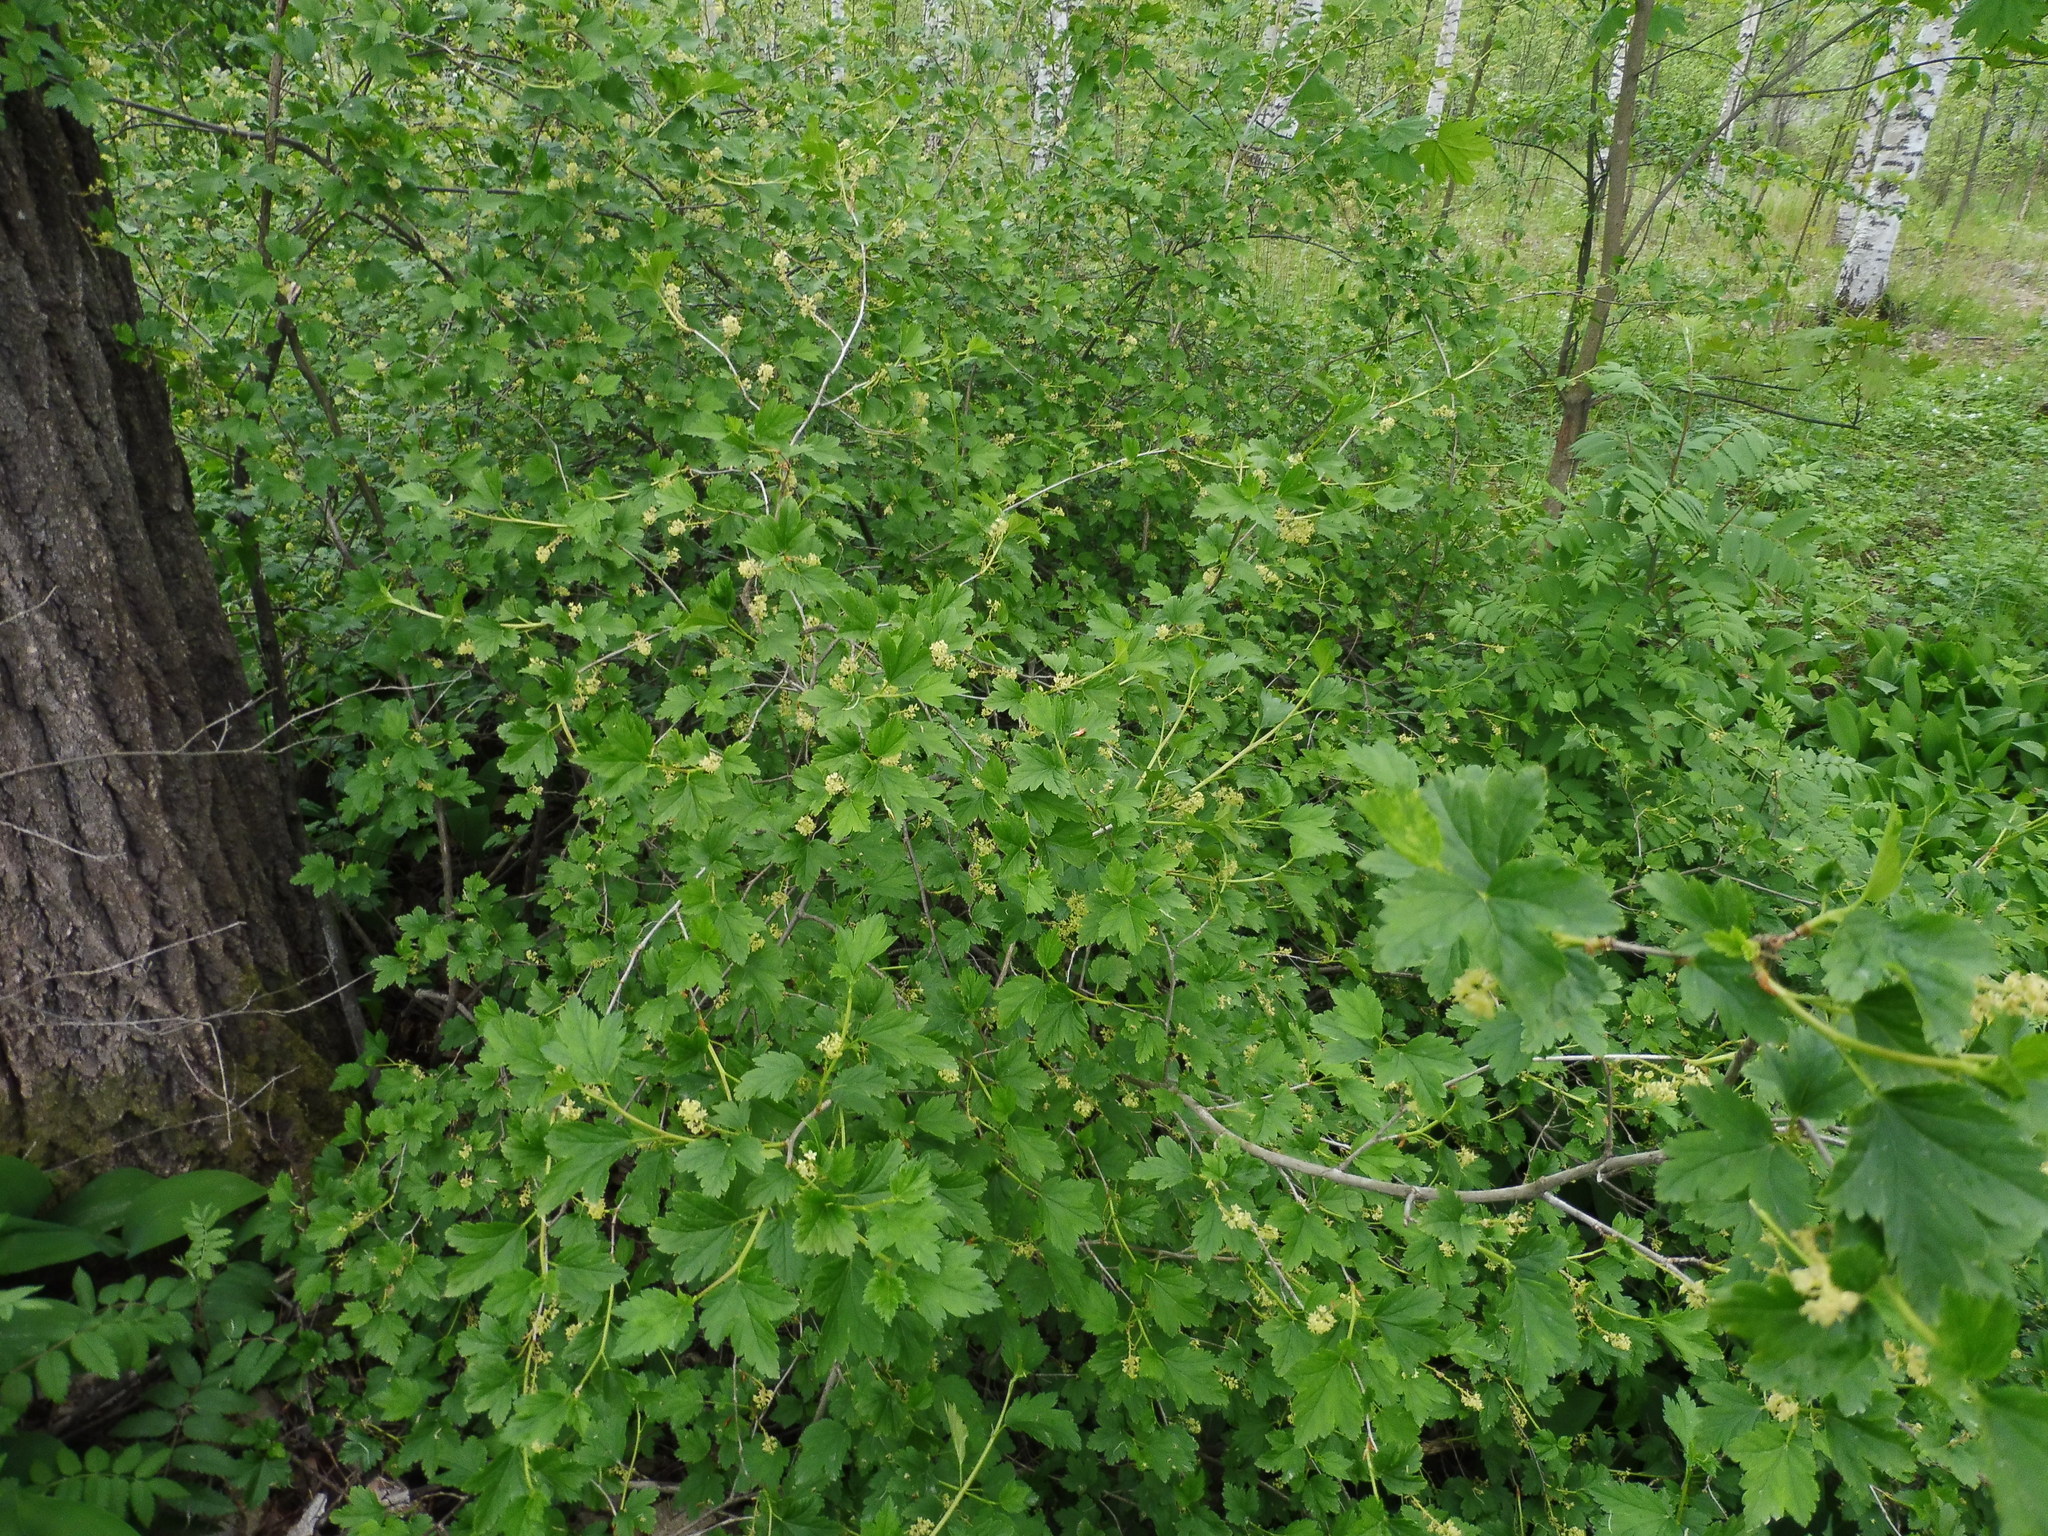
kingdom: Plantae
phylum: Tracheophyta
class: Magnoliopsida
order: Saxifragales
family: Grossulariaceae
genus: Ribes
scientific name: Ribes alpinum
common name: Alpine currant
